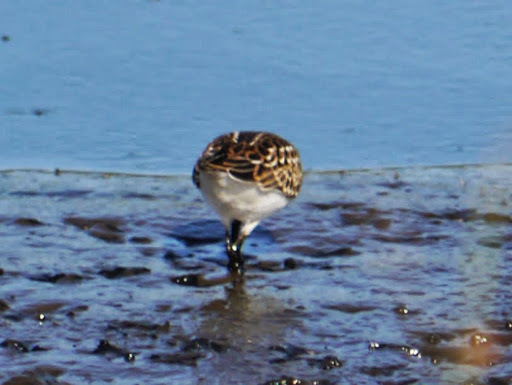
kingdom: Animalia
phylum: Chordata
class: Aves
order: Charadriiformes
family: Scolopacidae
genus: Calidris
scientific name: Calidris minutilla
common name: Least sandpiper
